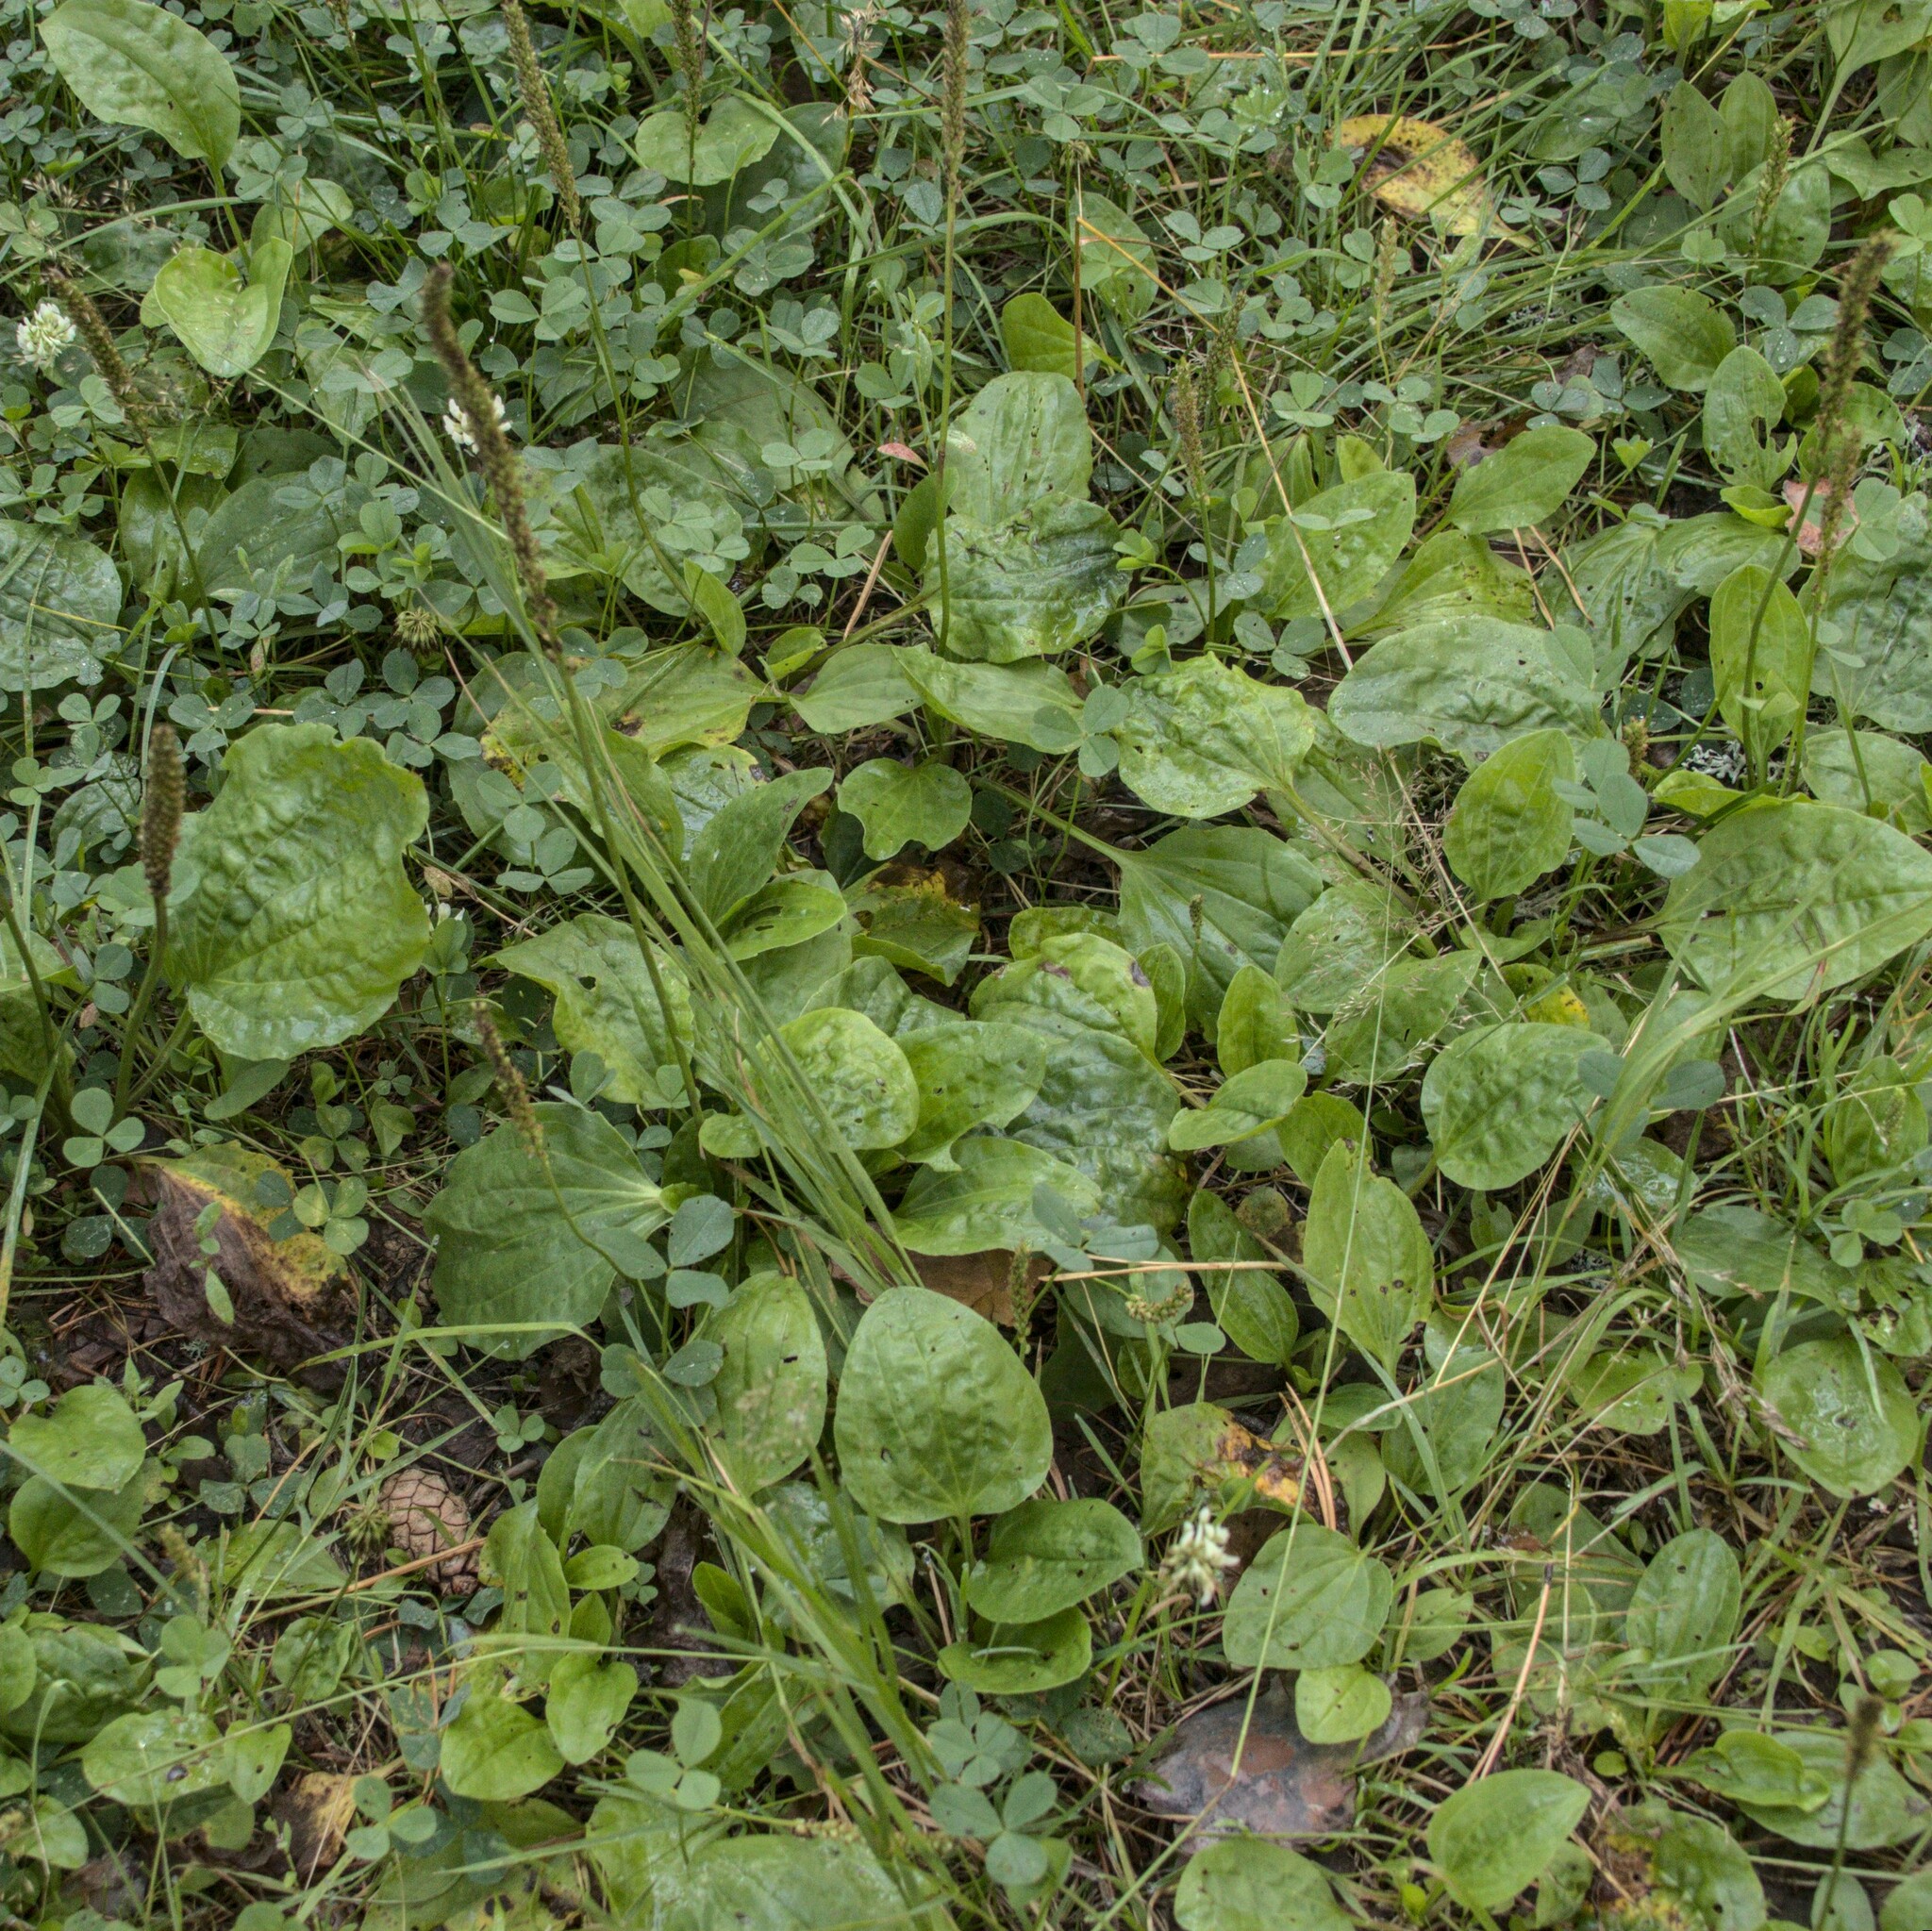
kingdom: Plantae
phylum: Tracheophyta
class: Magnoliopsida
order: Lamiales
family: Plantaginaceae
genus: Plantago
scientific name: Plantago major
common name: Common plantain
